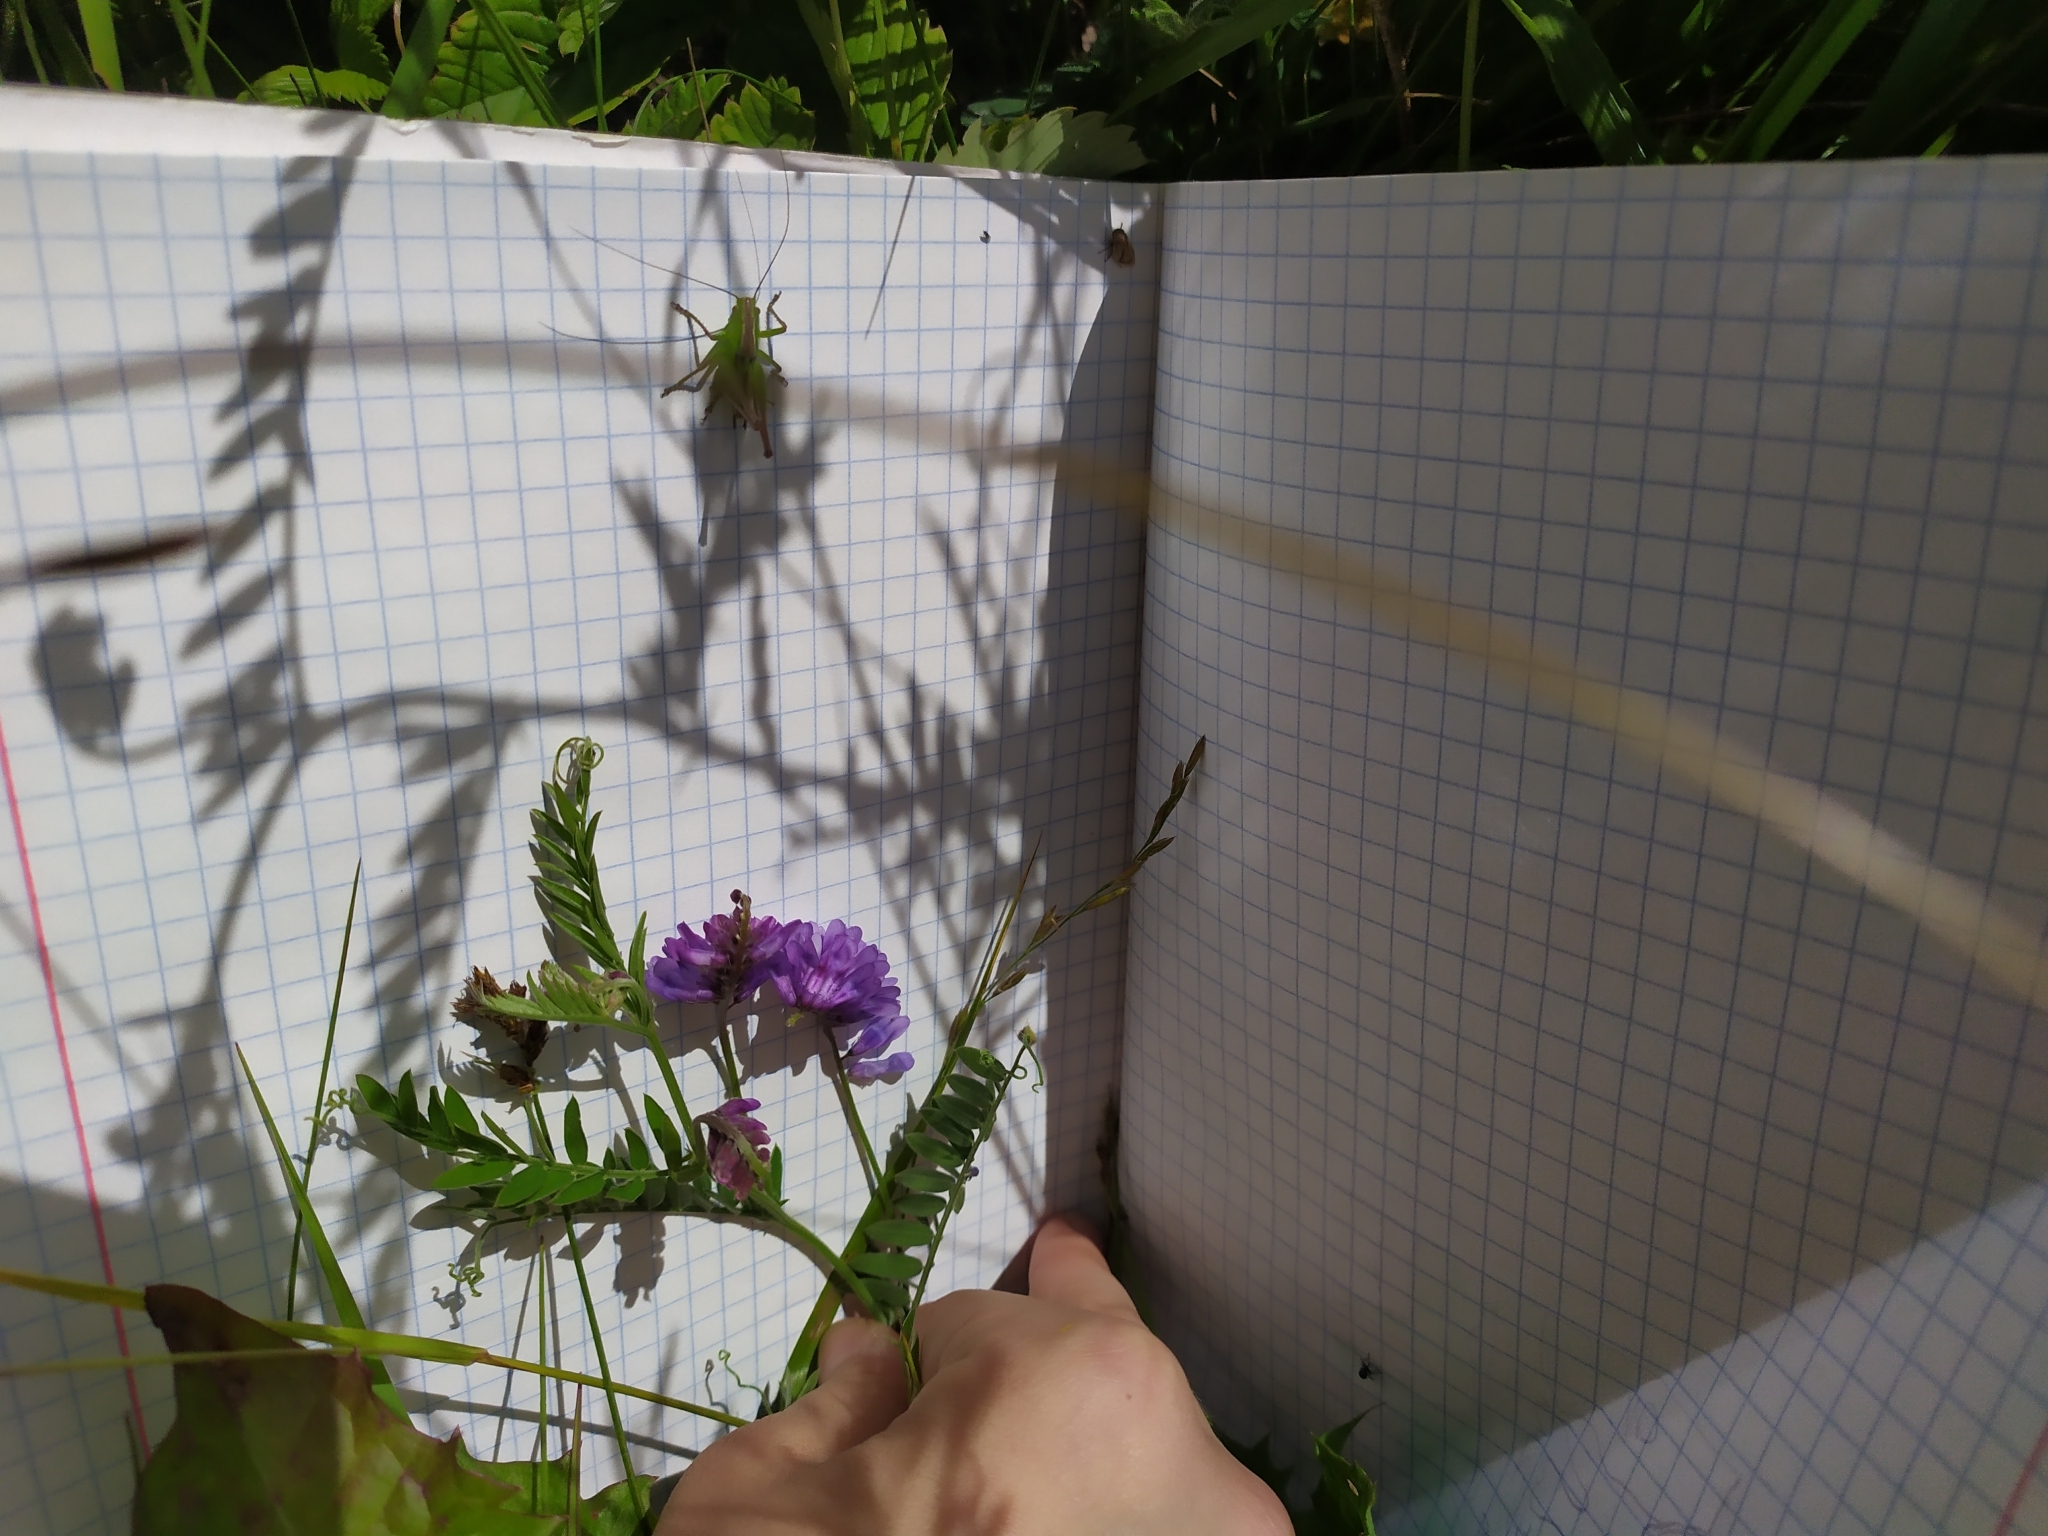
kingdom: Plantae
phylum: Tracheophyta
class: Magnoliopsida
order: Fabales
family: Fabaceae
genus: Vicia
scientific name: Vicia cracca
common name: Bird vetch
